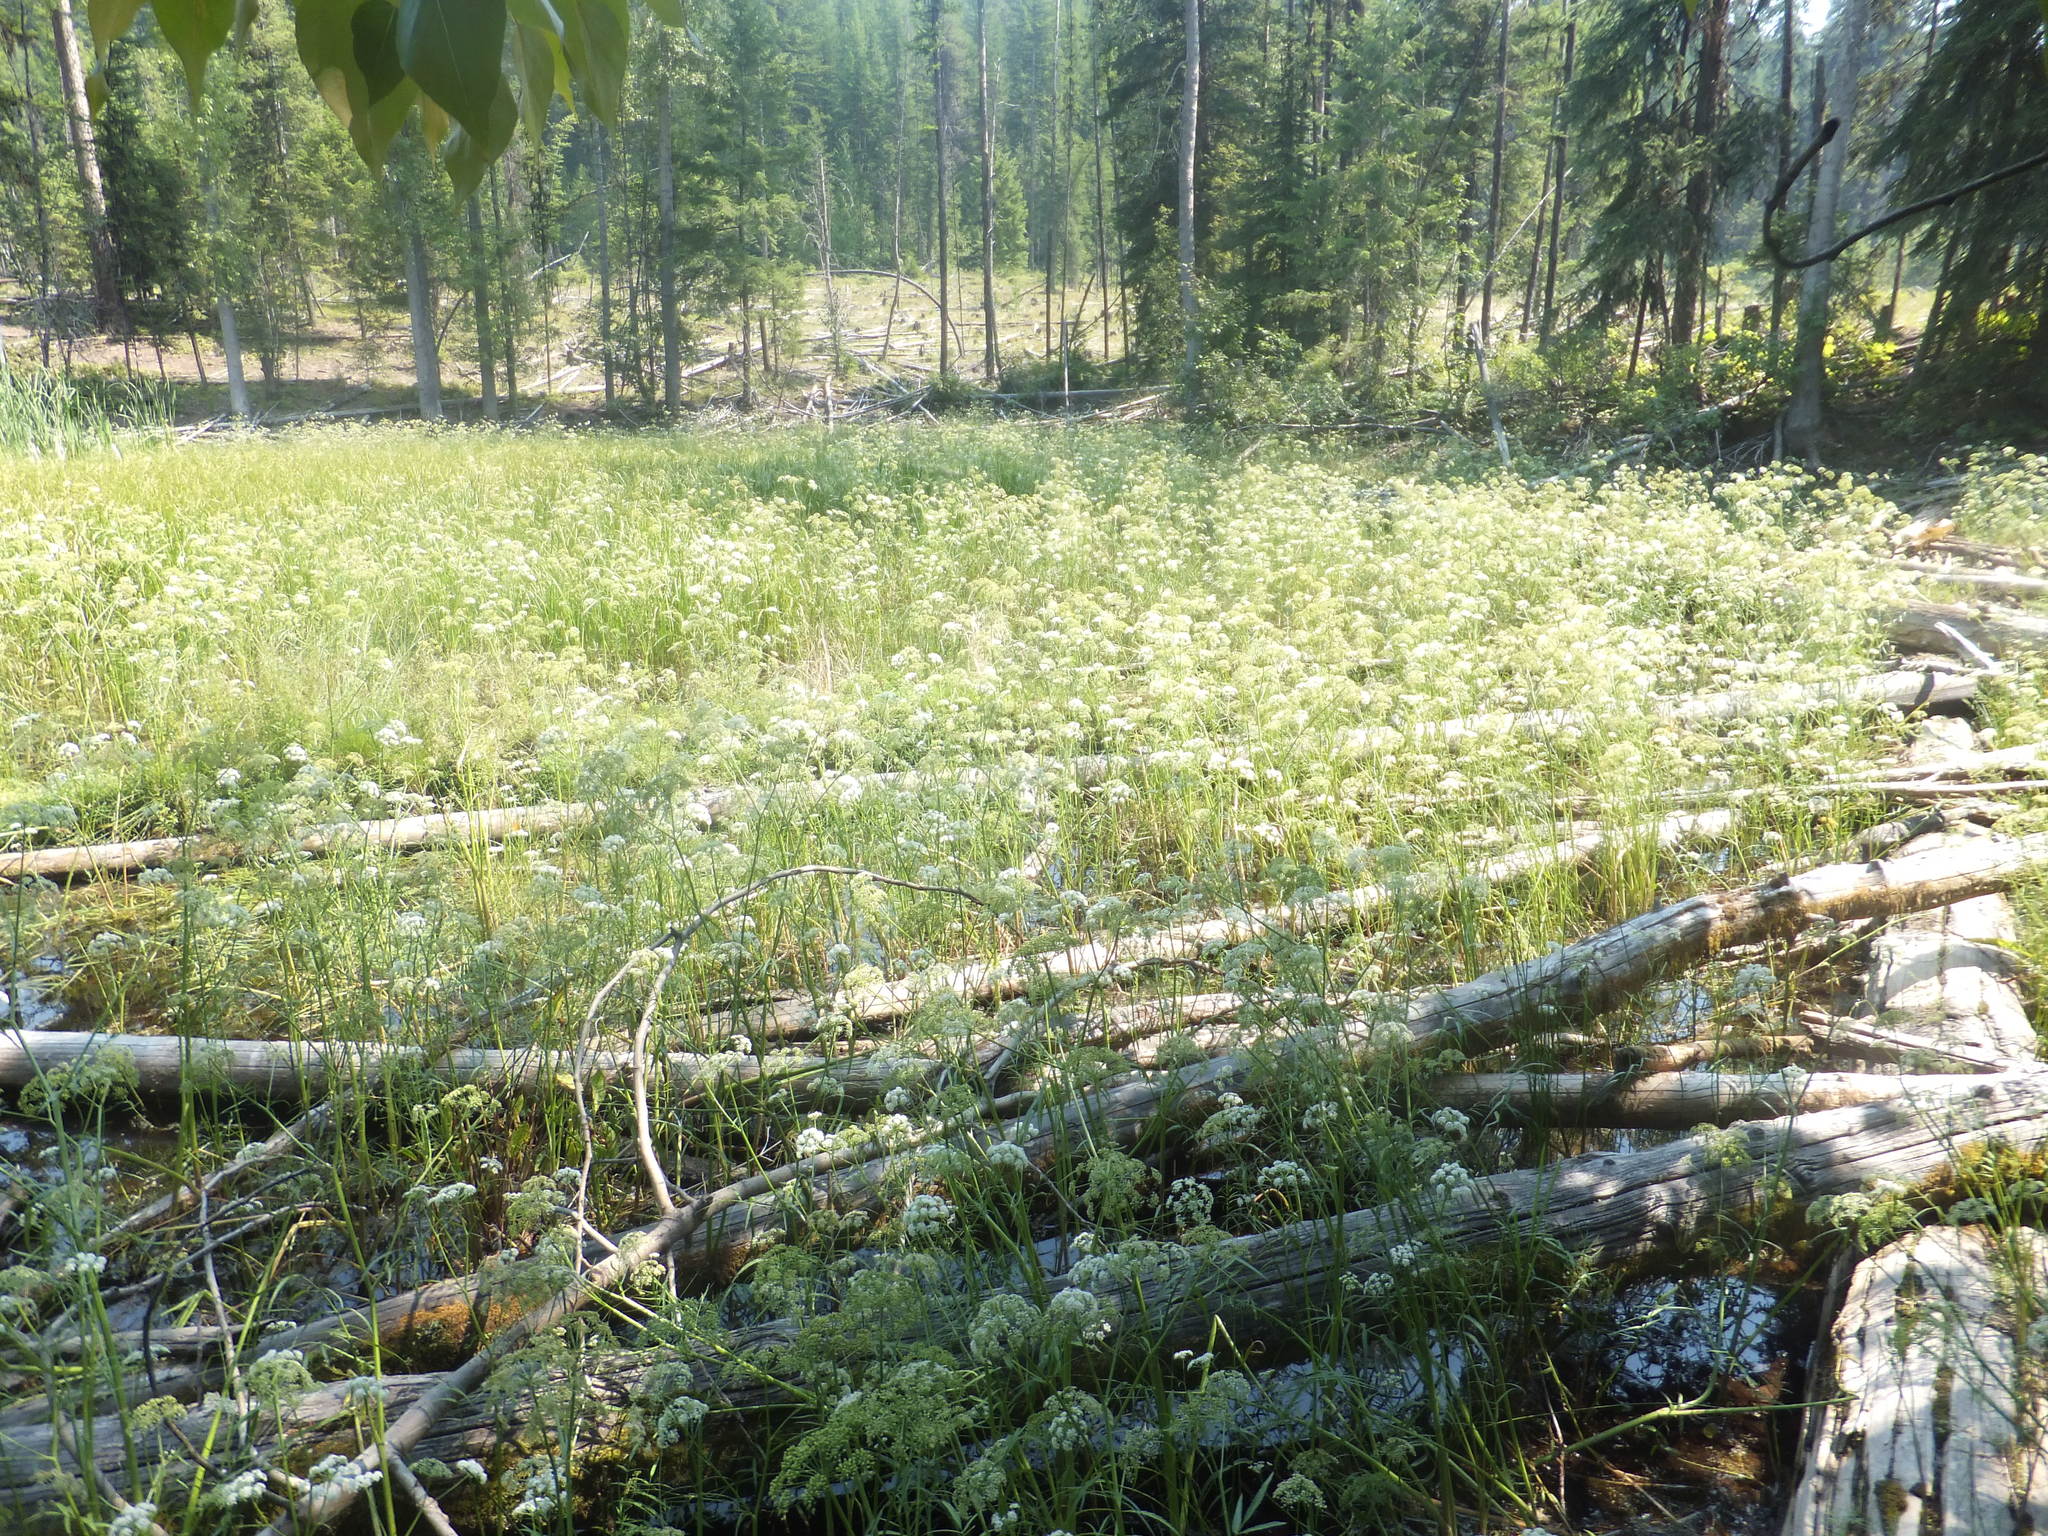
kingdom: Plantae
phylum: Tracheophyta
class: Magnoliopsida
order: Apiales
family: Apiaceae
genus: Sium
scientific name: Sium suave
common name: Hemlock water-parsnip
